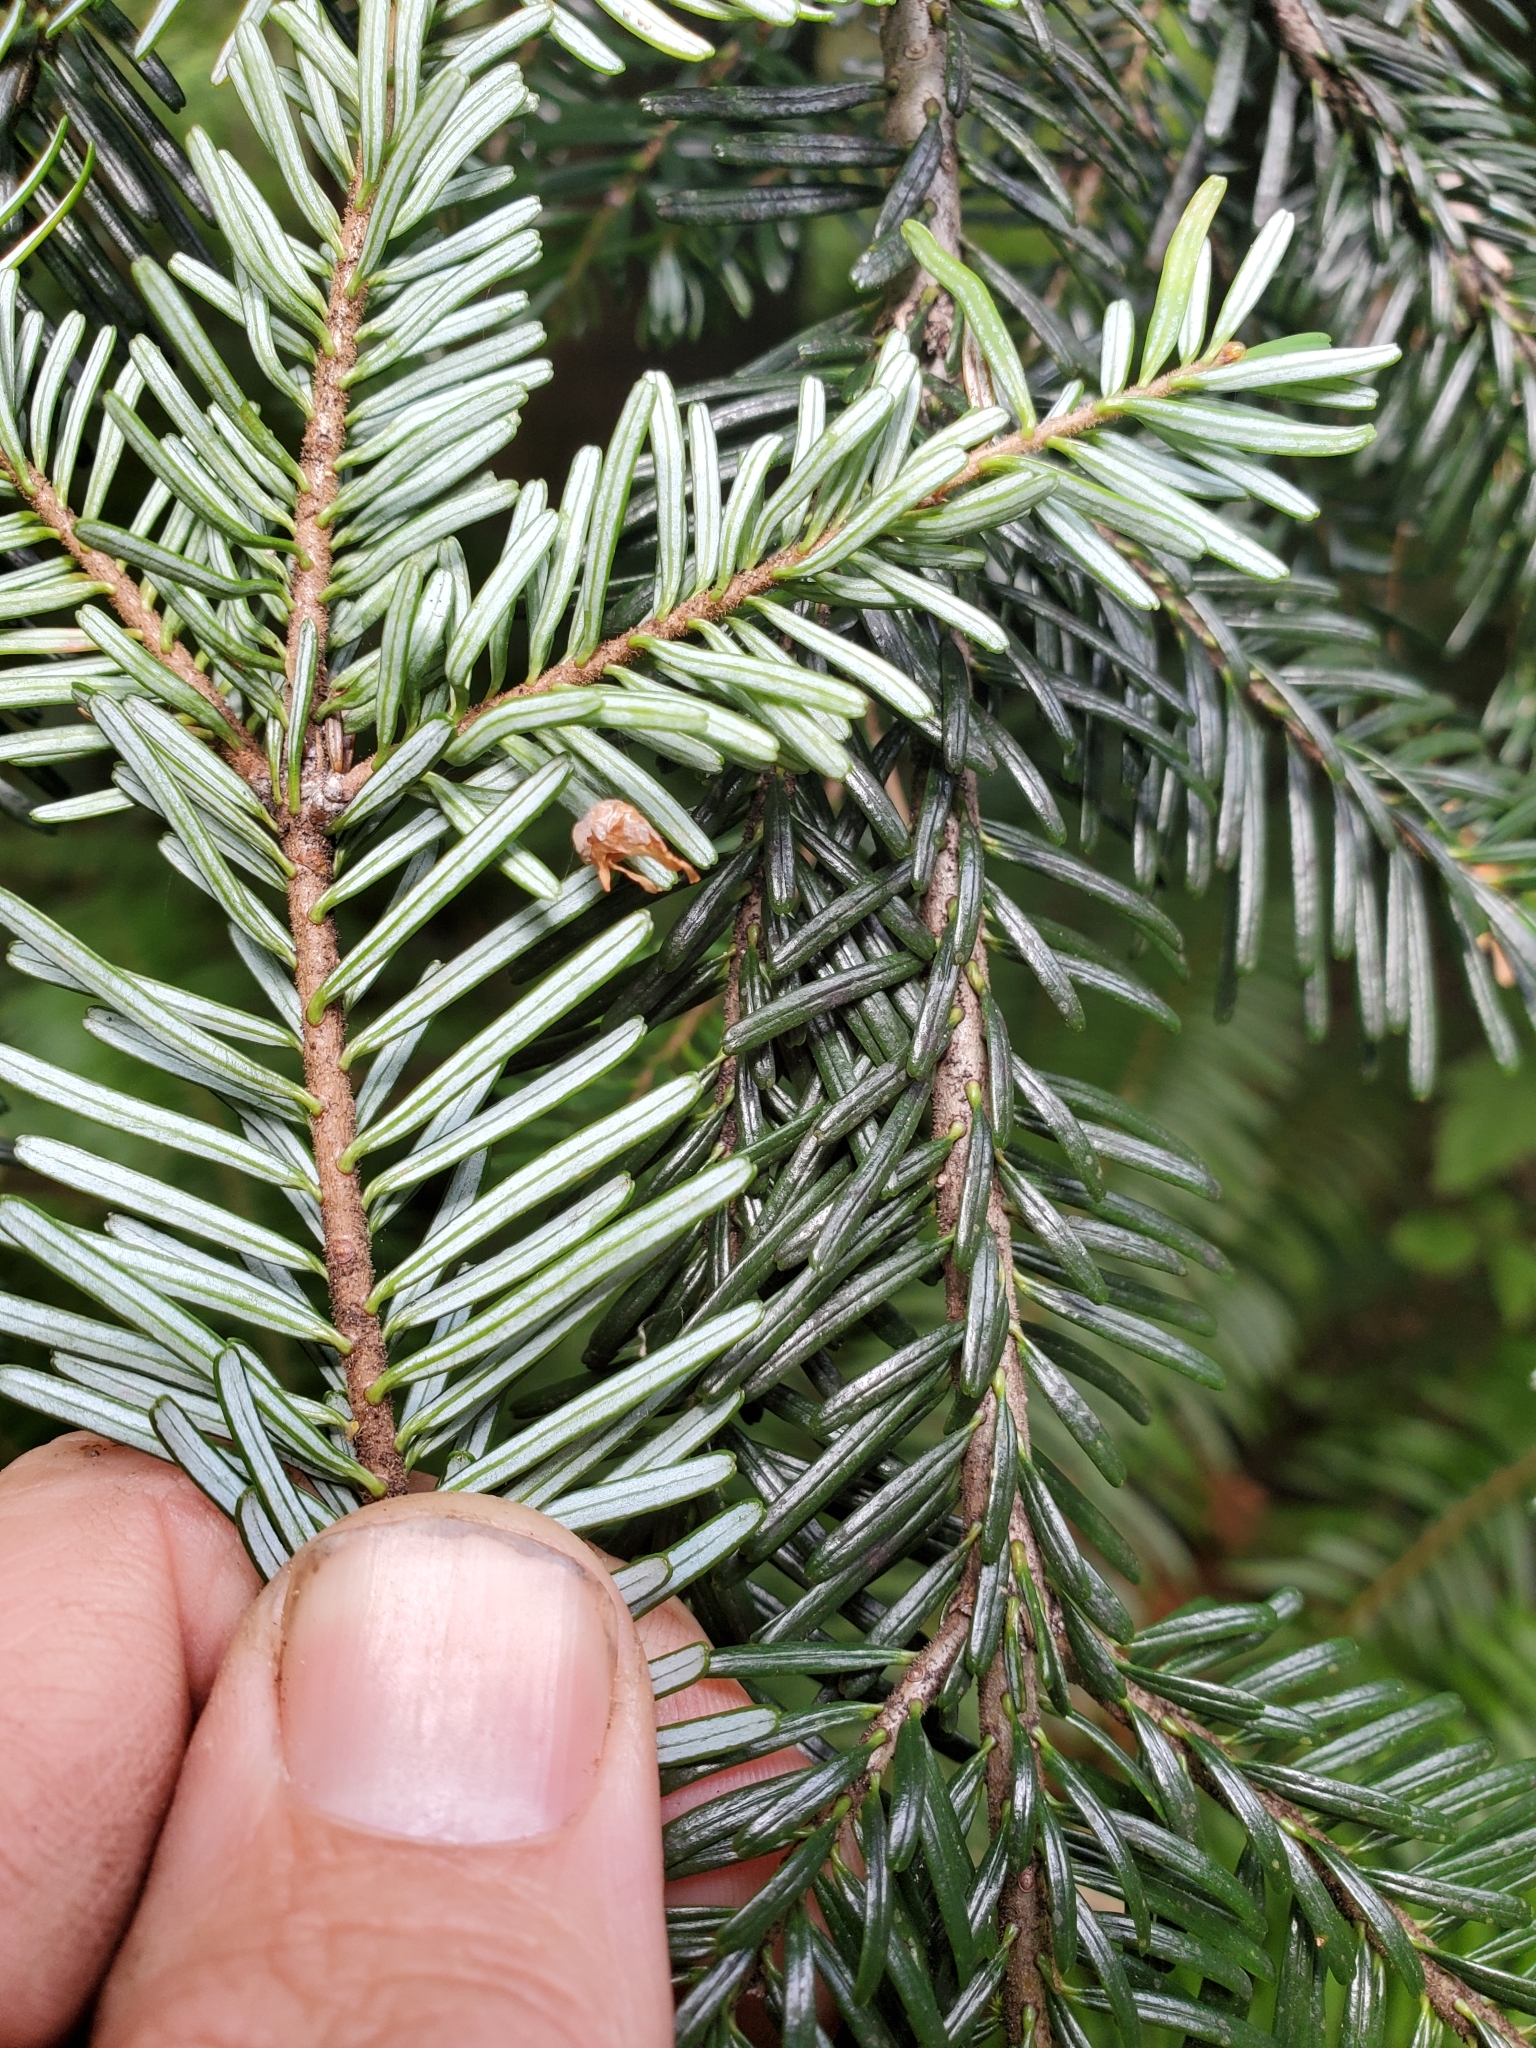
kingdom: Plantae
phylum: Tracheophyta
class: Pinopsida
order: Pinales
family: Pinaceae
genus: Abies
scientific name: Abies amabilis
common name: Pacific silver fir
